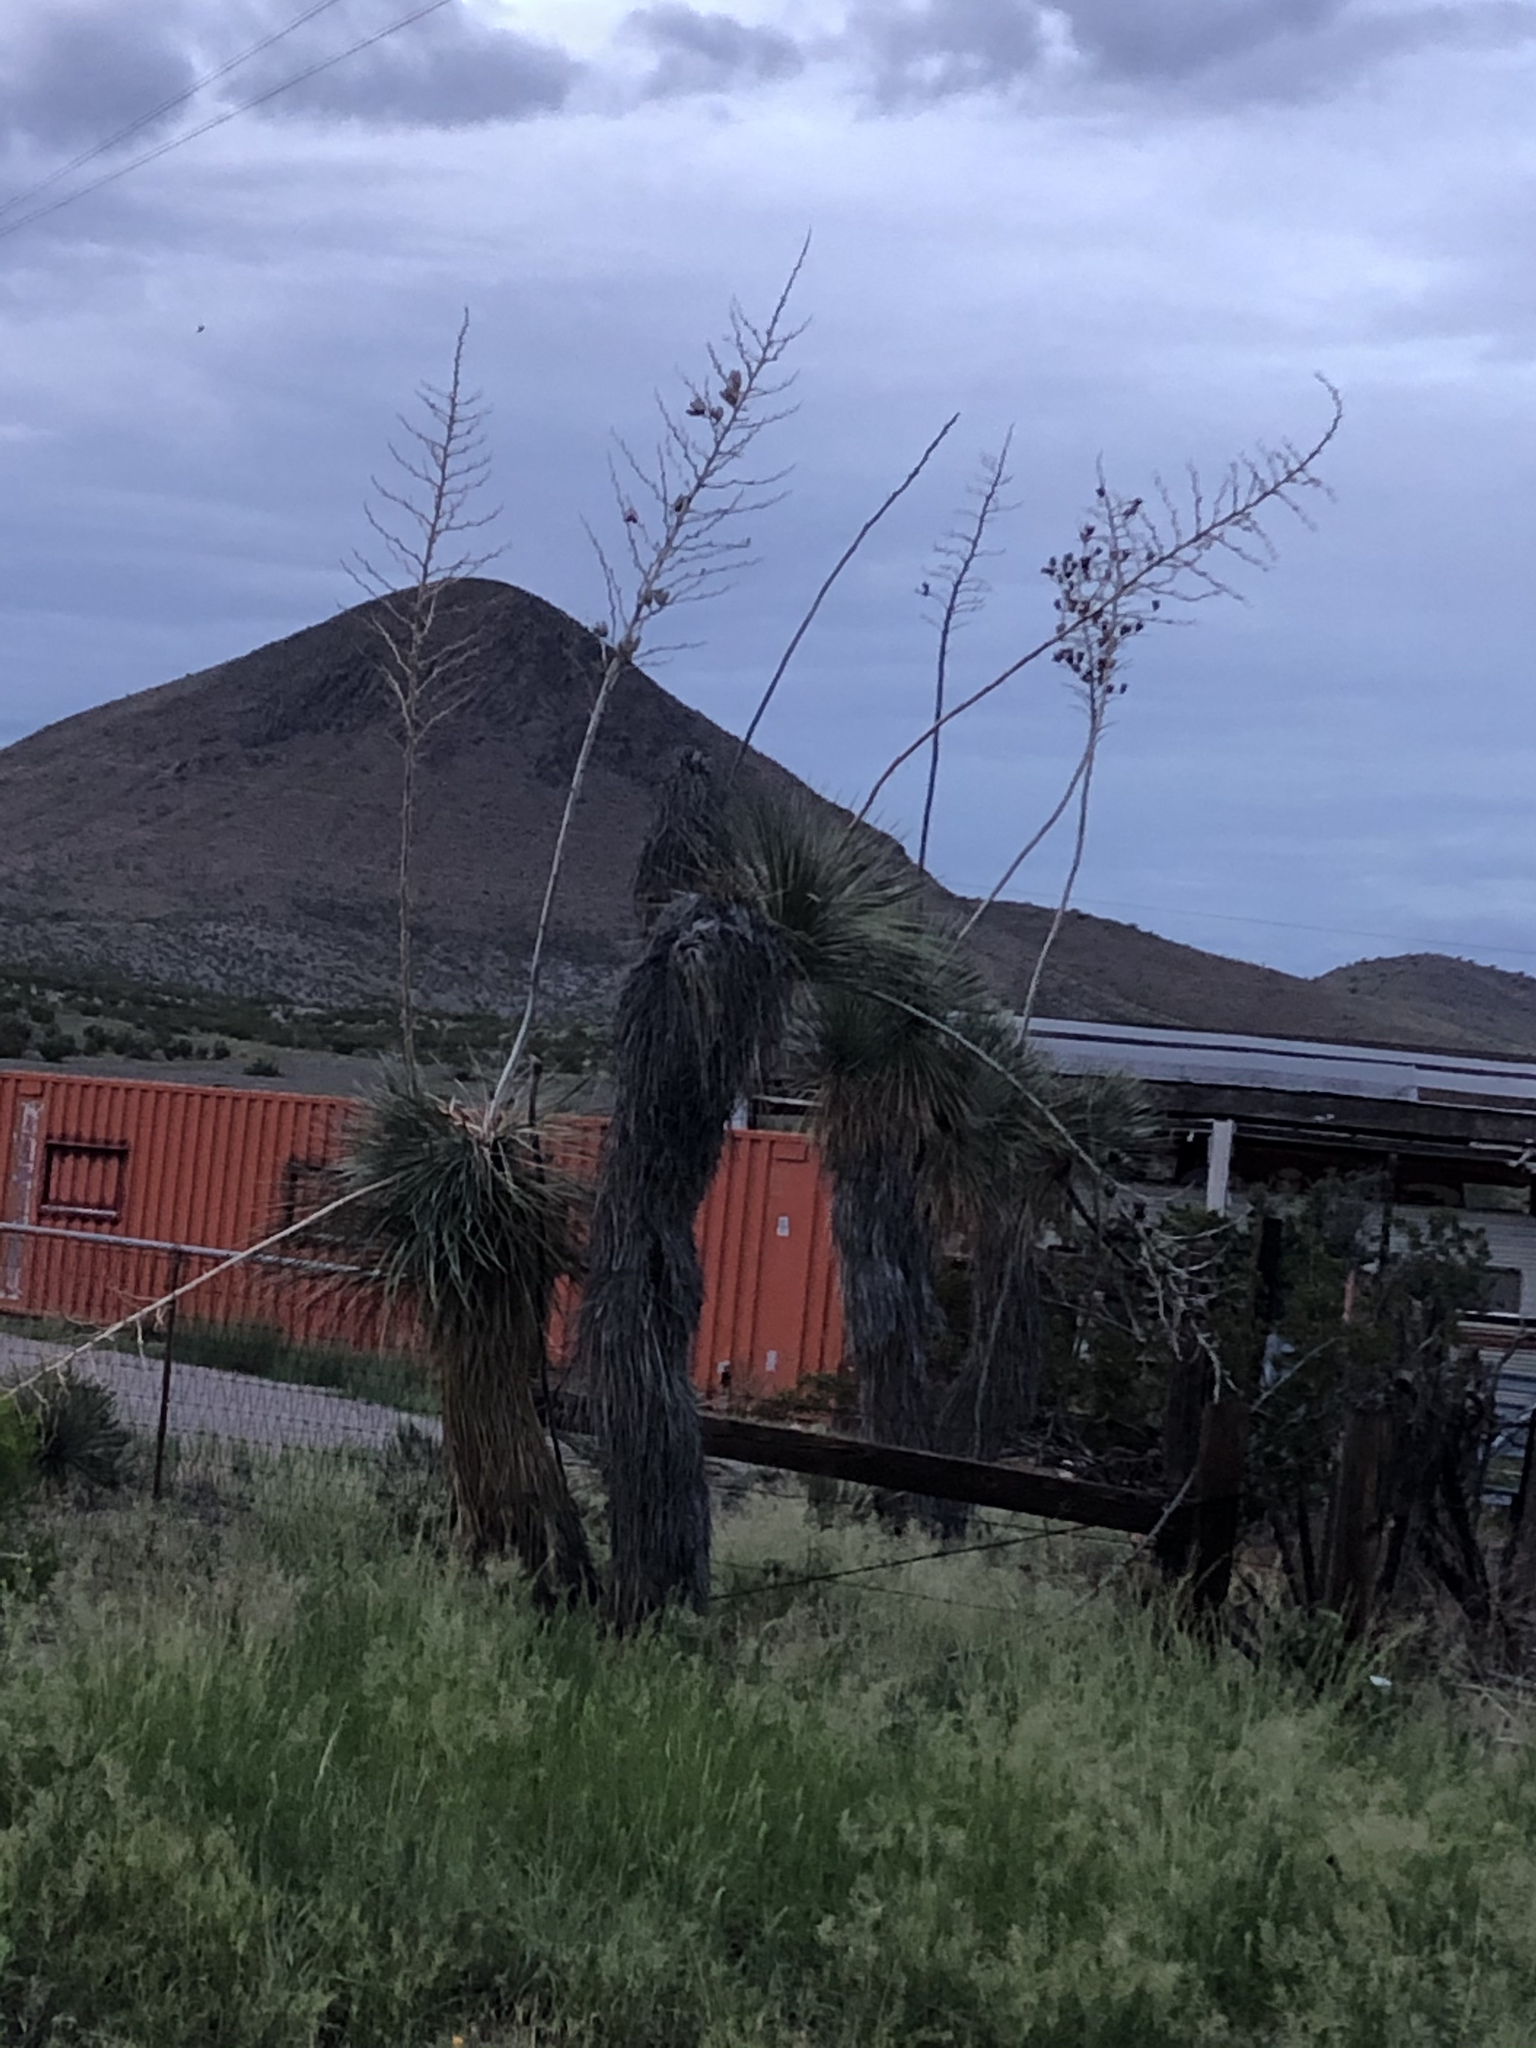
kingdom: Plantae
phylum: Tracheophyta
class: Liliopsida
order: Asparagales
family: Asparagaceae
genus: Yucca
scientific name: Yucca elata
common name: Palmella
